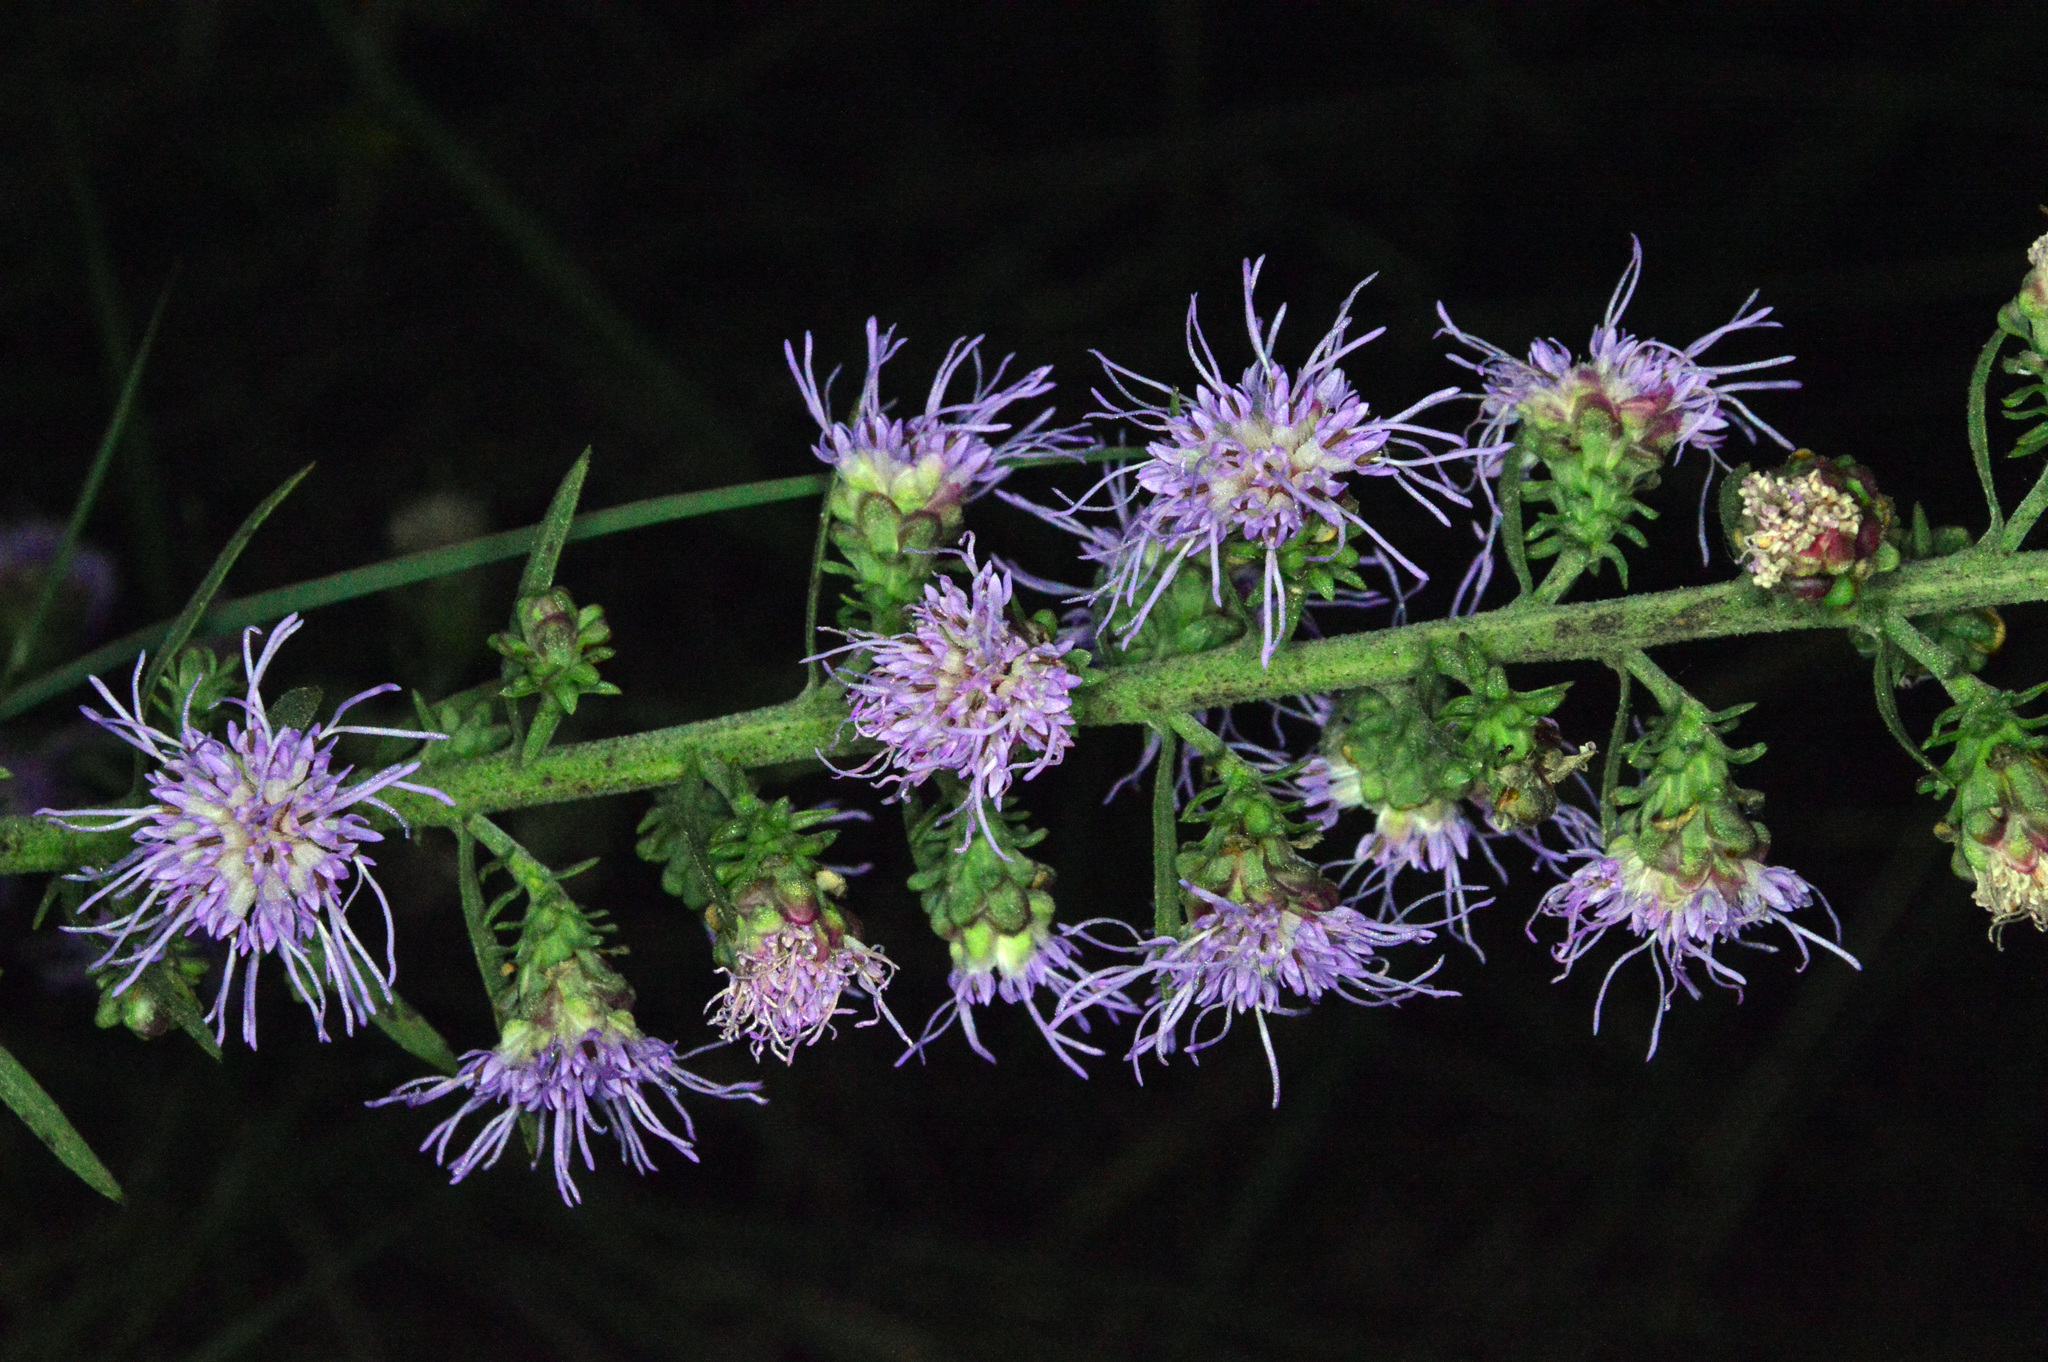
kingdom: Plantae
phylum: Tracheophyta
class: Magnoliopsida
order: Asterales
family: Asteraceae
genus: Liatris
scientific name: Liatris aspera
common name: Lacerate blazing-star
